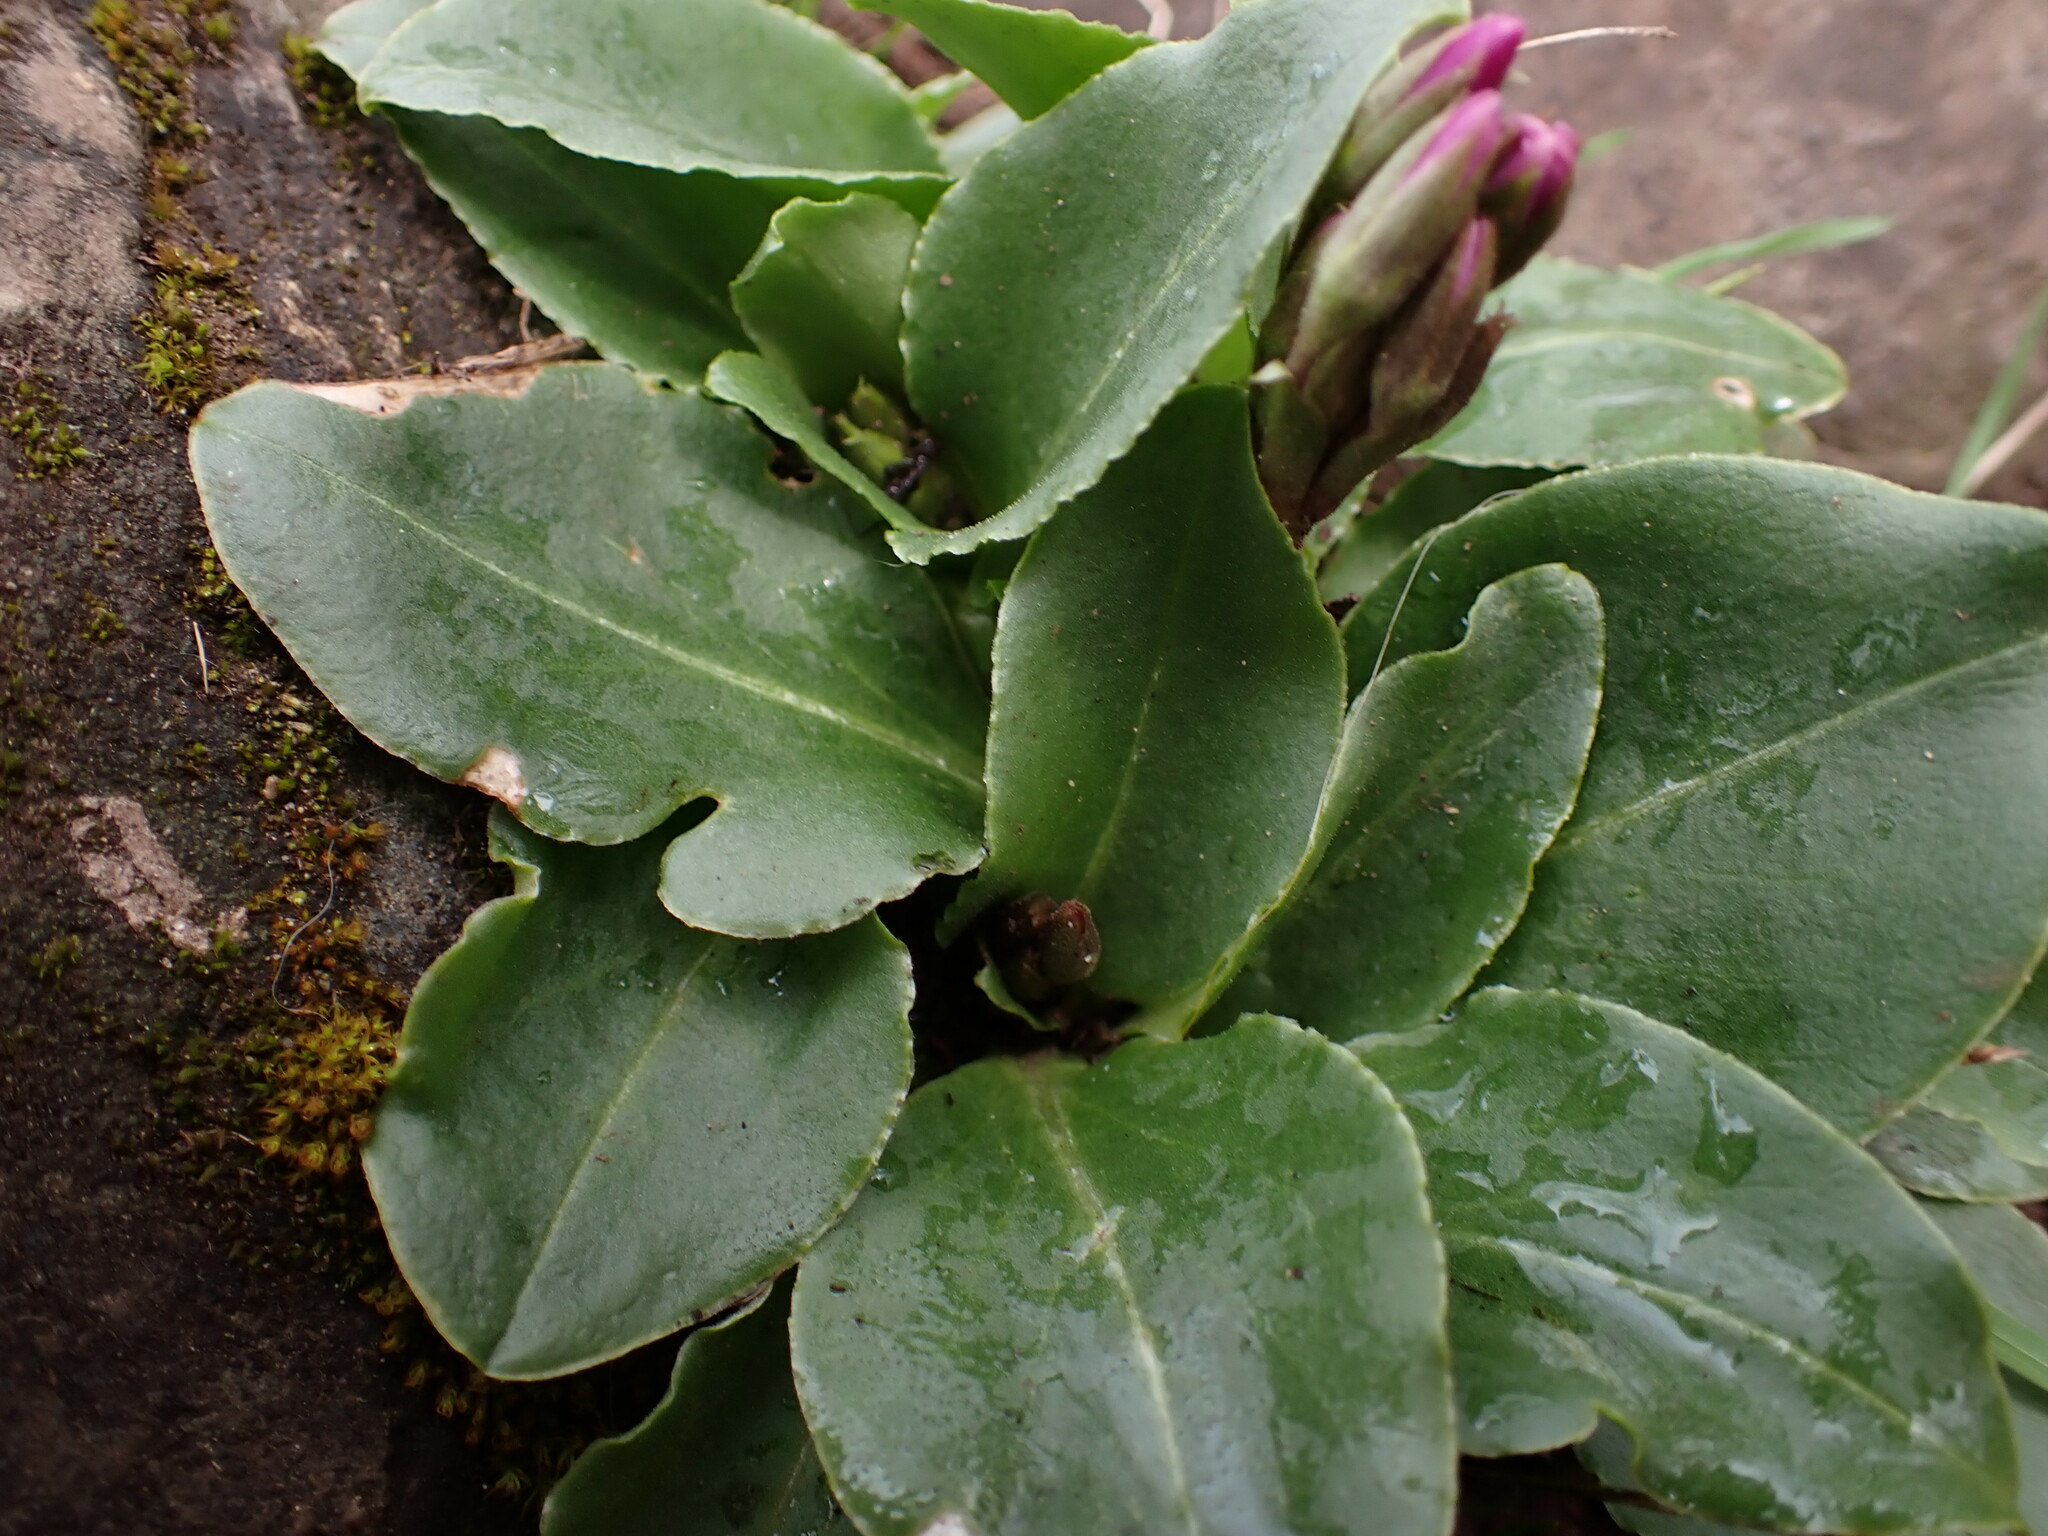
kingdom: Plantae
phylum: Tracheophyta
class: Magnoliopsida
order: Ericales
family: Primulaceae
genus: Dodecatheon
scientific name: Dodecatheon hendersonii
